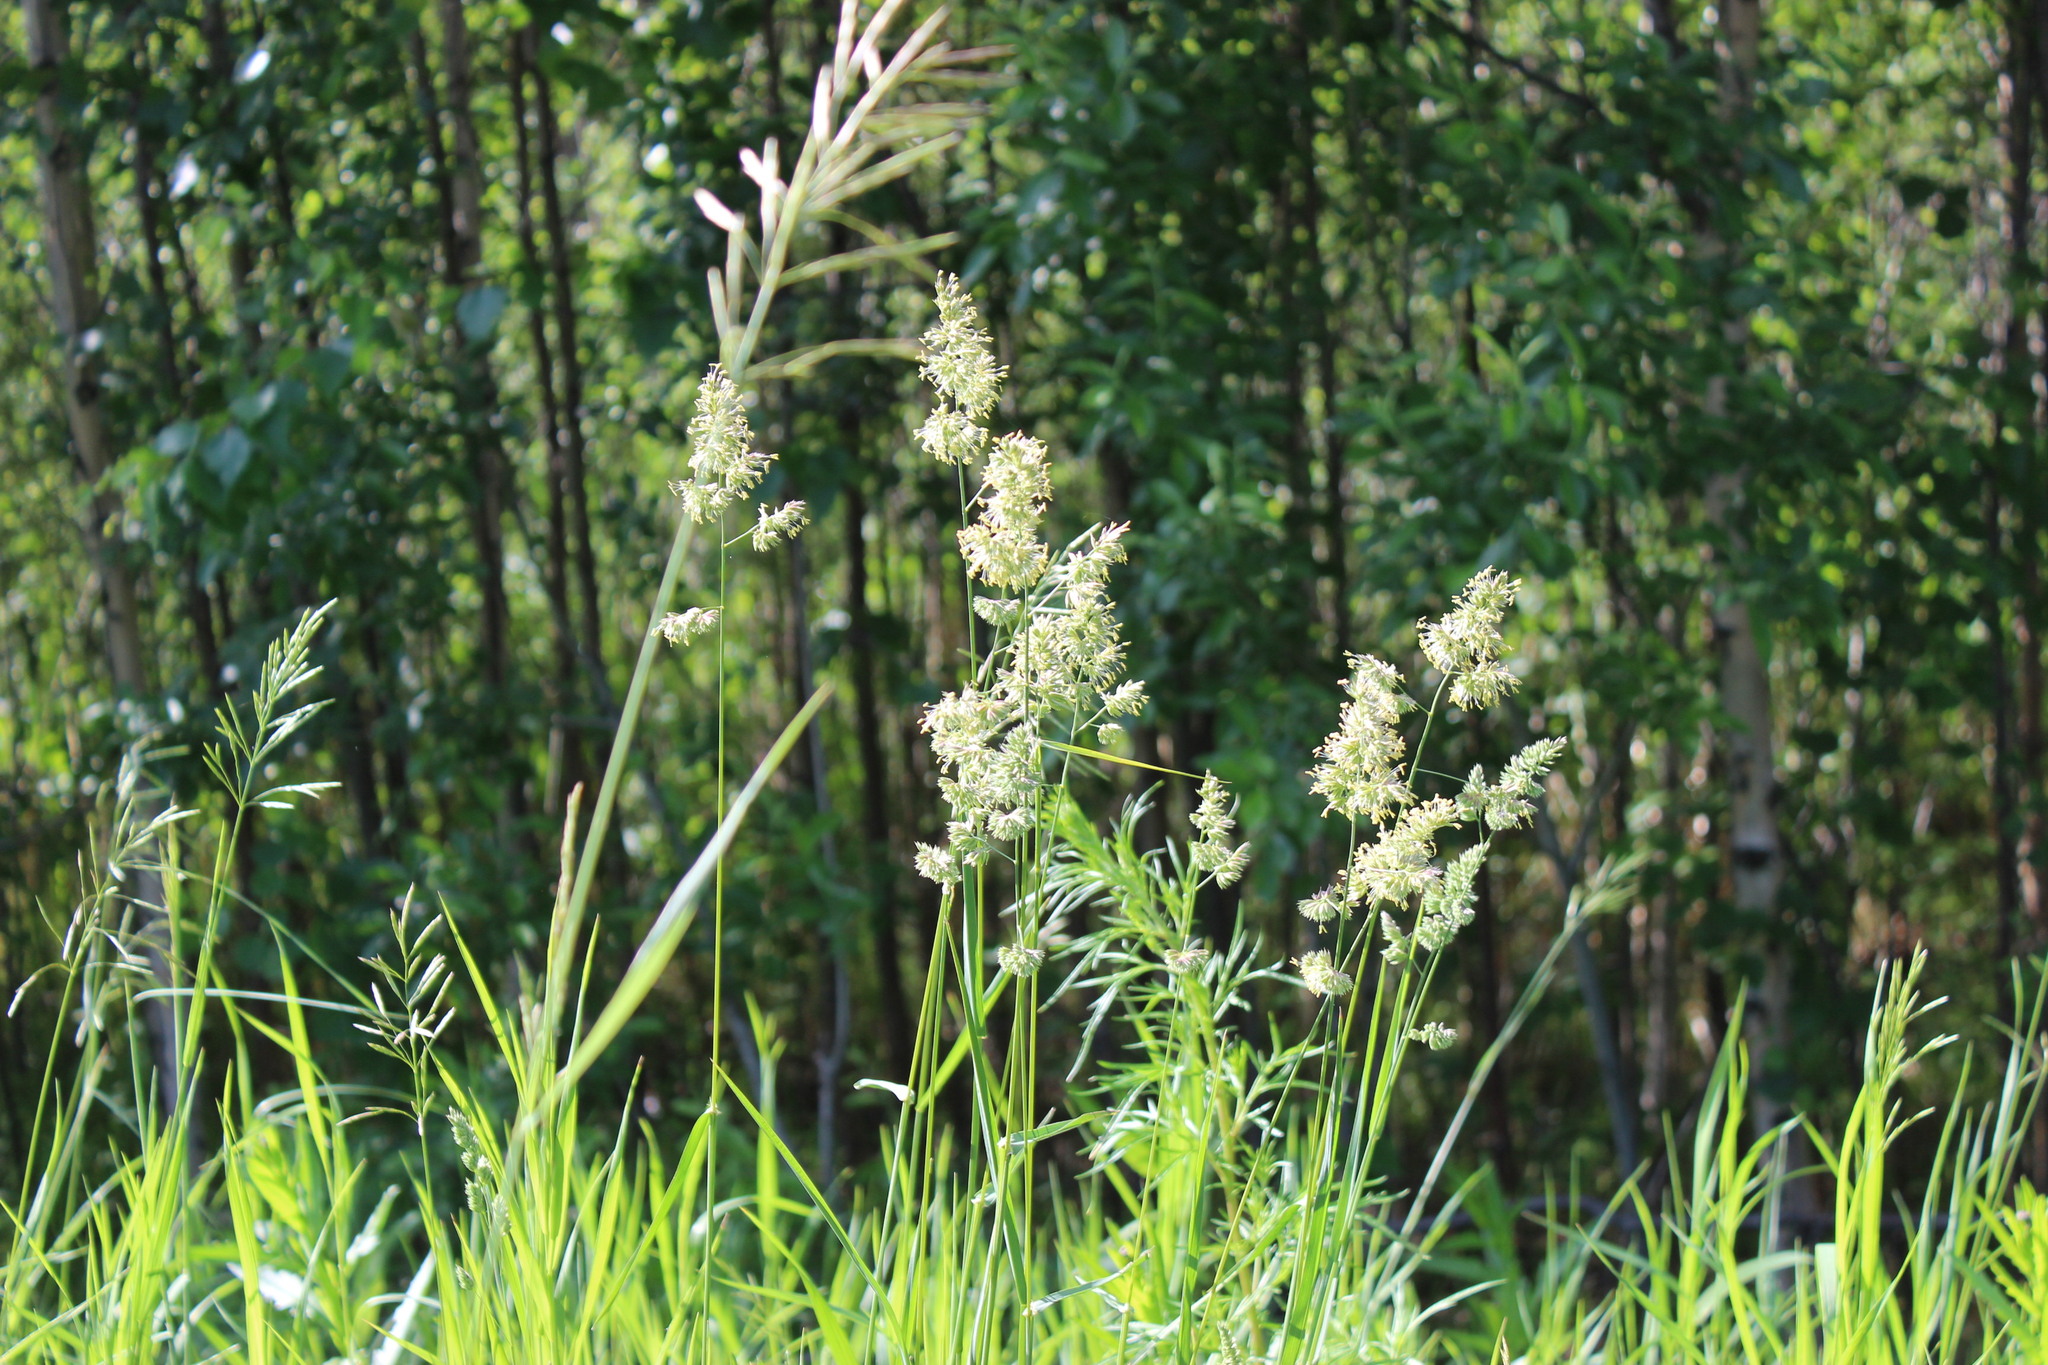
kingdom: Plantae
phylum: Tracheophyta
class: Liliopsida
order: Poales
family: Poaceae
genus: Dactylis
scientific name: Dactylis glomerata
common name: Orchardgrass
